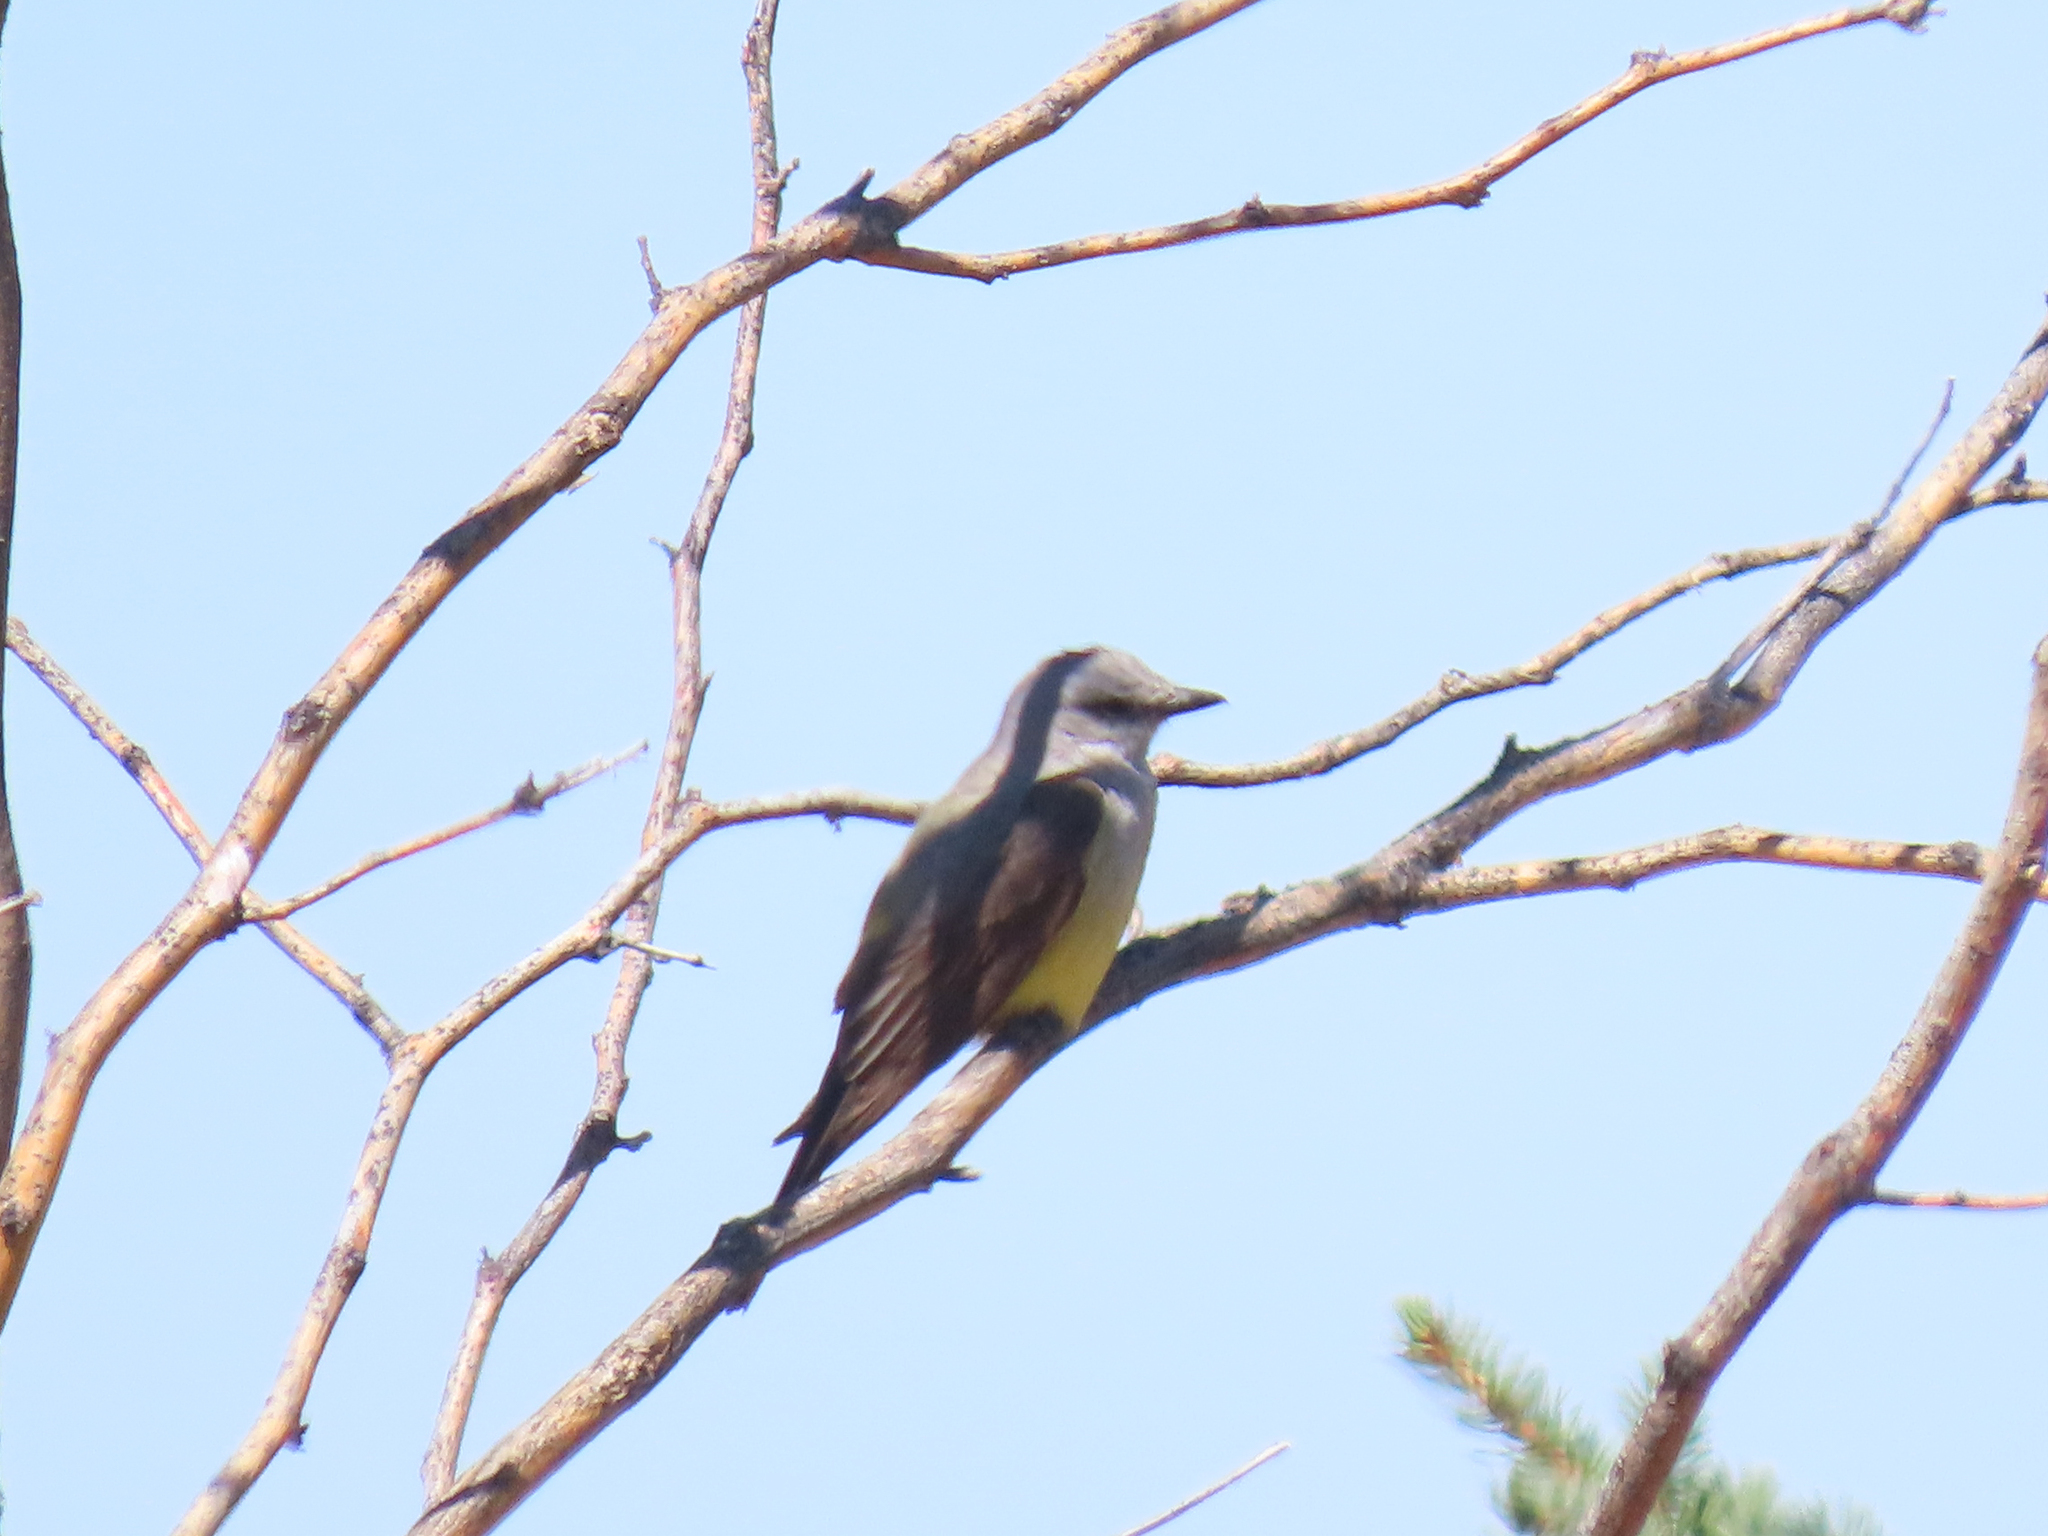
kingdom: Animalia
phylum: Chordata
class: Aves
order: Passeriformes
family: Tyrannidae
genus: Tyrannus
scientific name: Tyrannus verticalis
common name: Western kingbird
